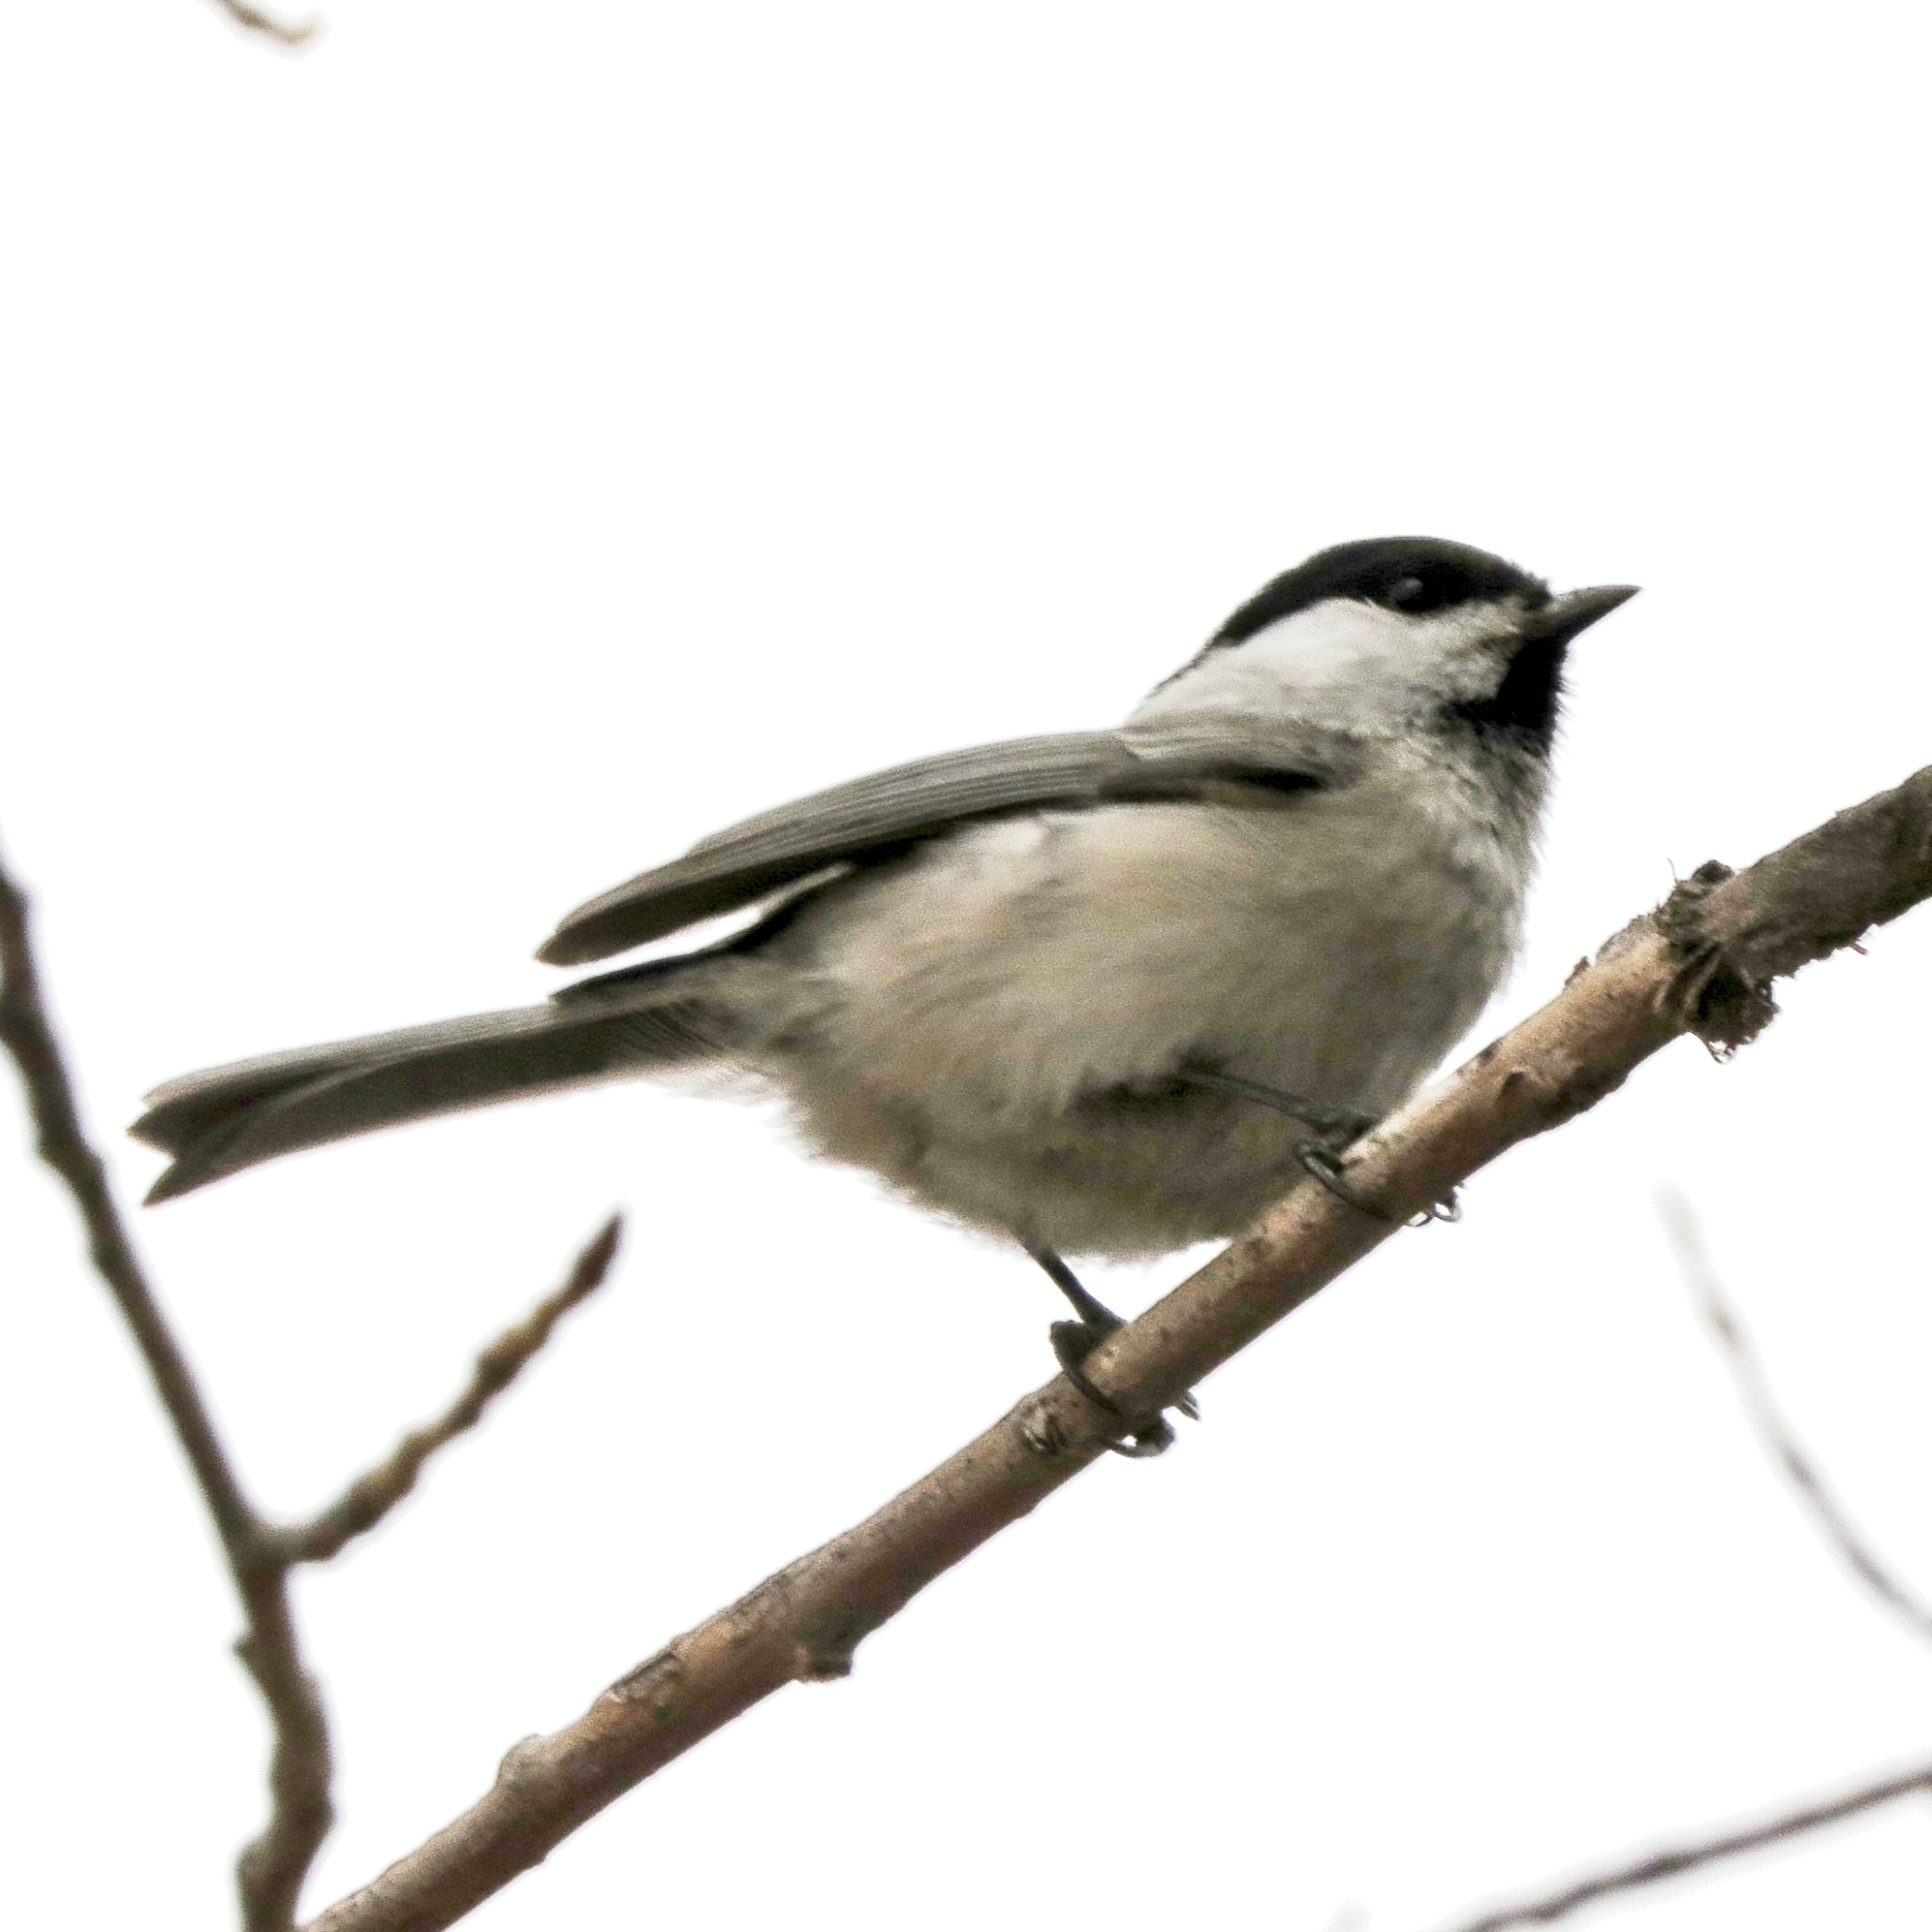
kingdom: Animalia
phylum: Chordata
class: Aves
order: Passeriformes
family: Paridae
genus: Poecile
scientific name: Poecile montanus
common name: Willow tit
